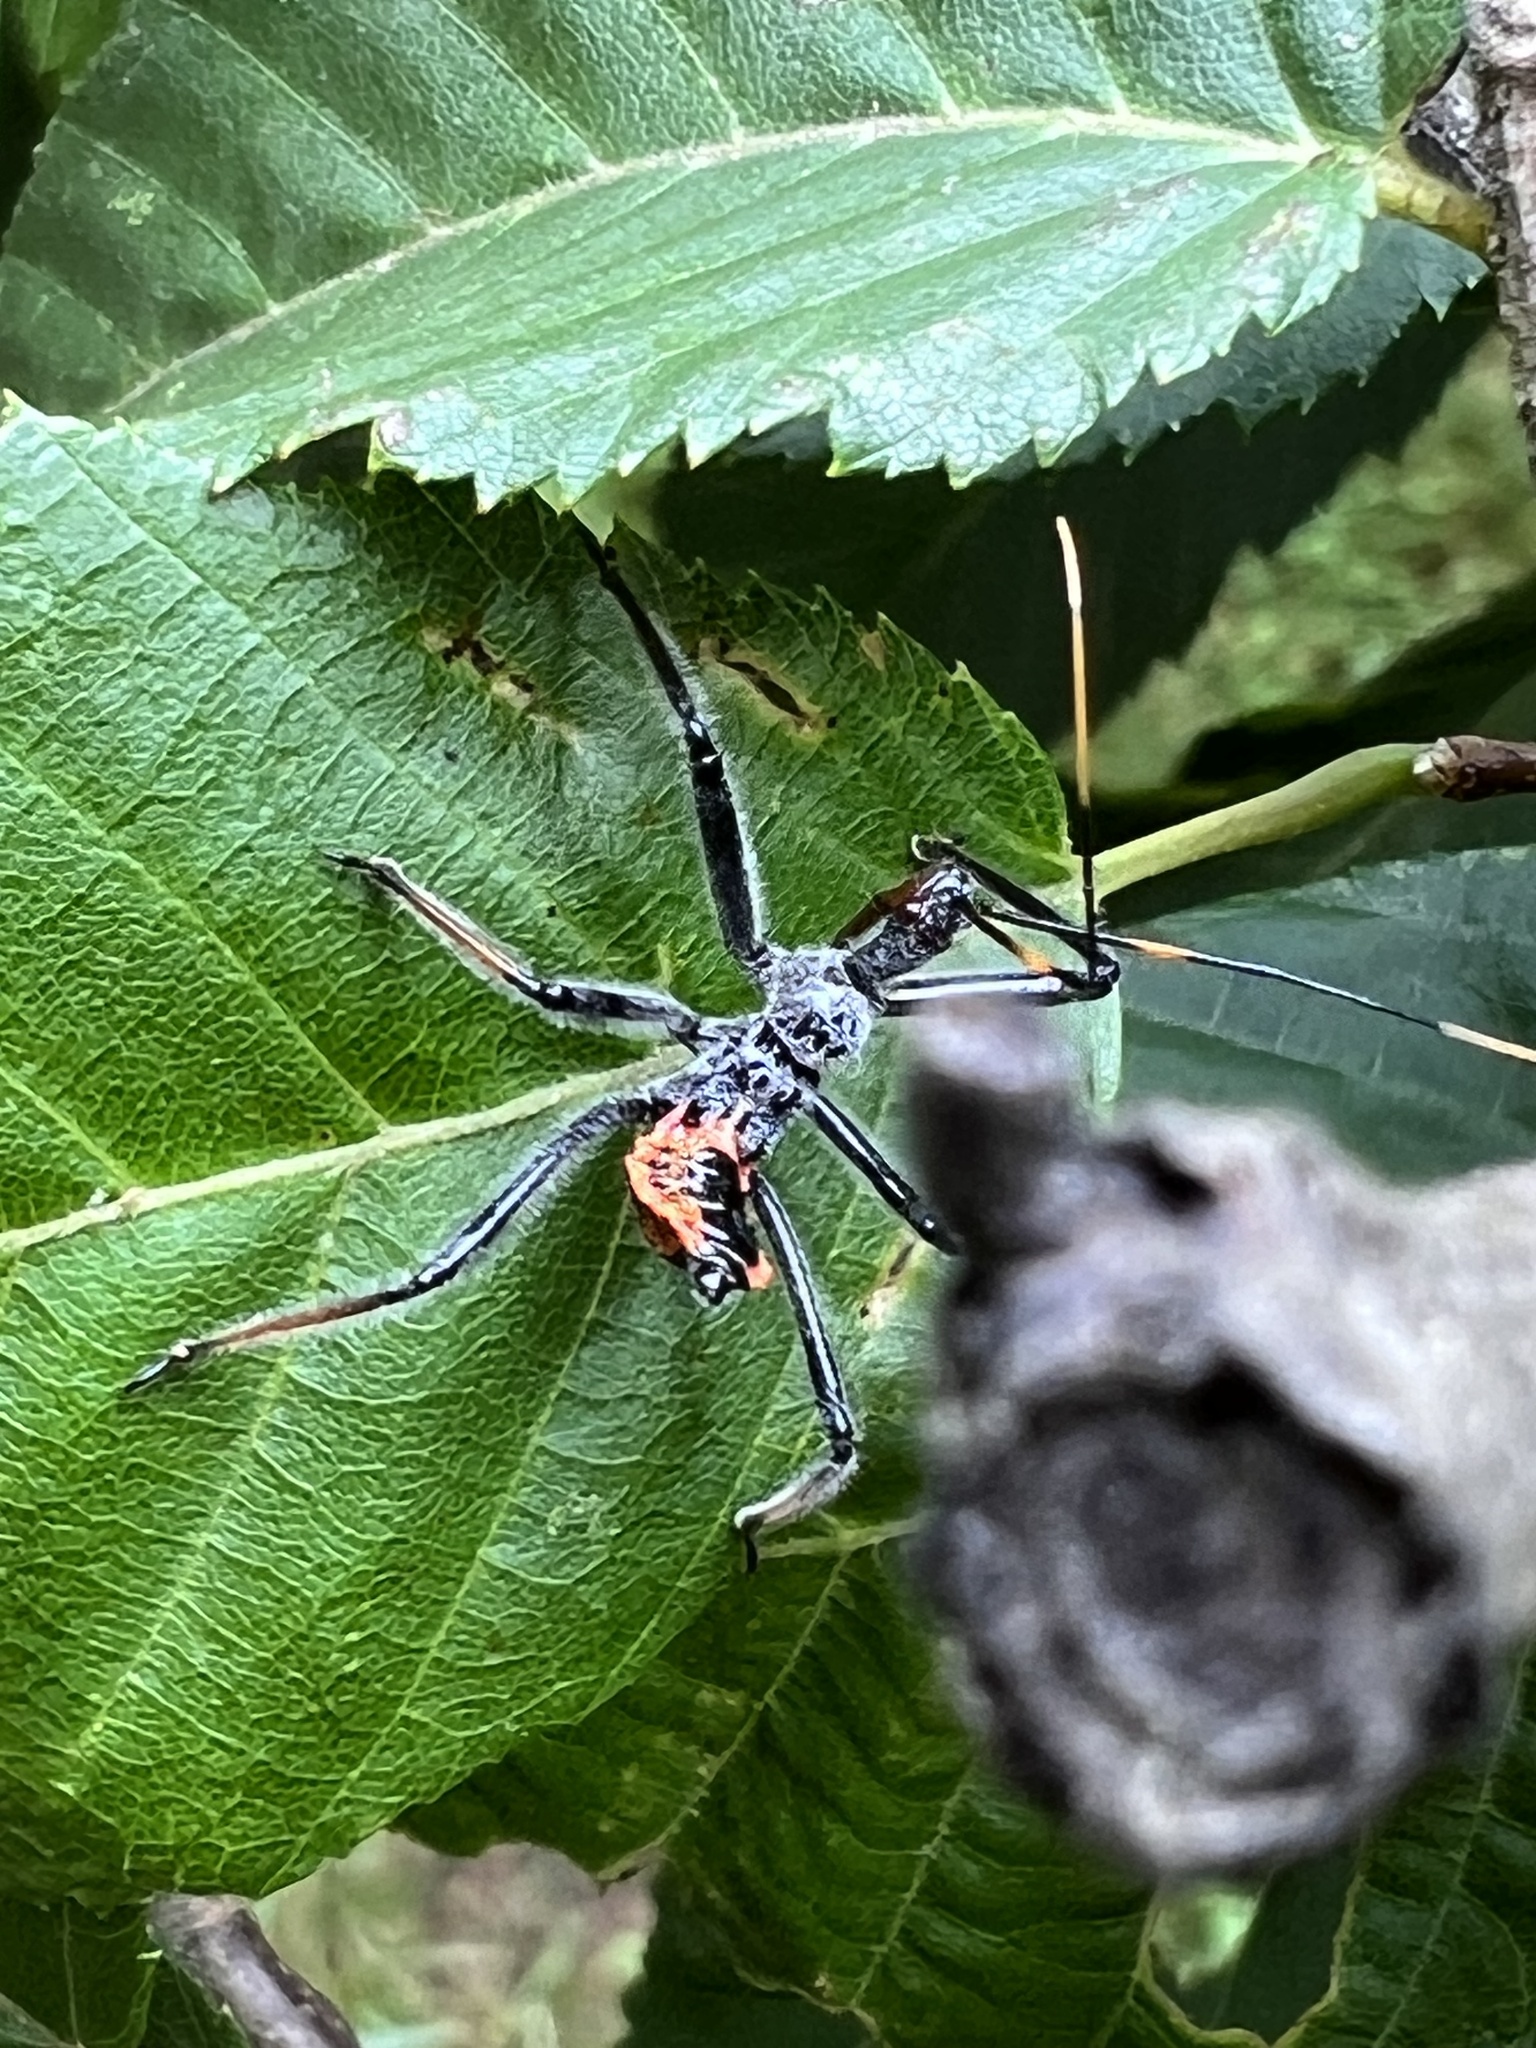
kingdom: Animalia
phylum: Arthropoda
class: Insecta
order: Hemiptera
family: Reduviidae
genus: Arilus
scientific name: Arilus cristatus
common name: North american wheel bug
